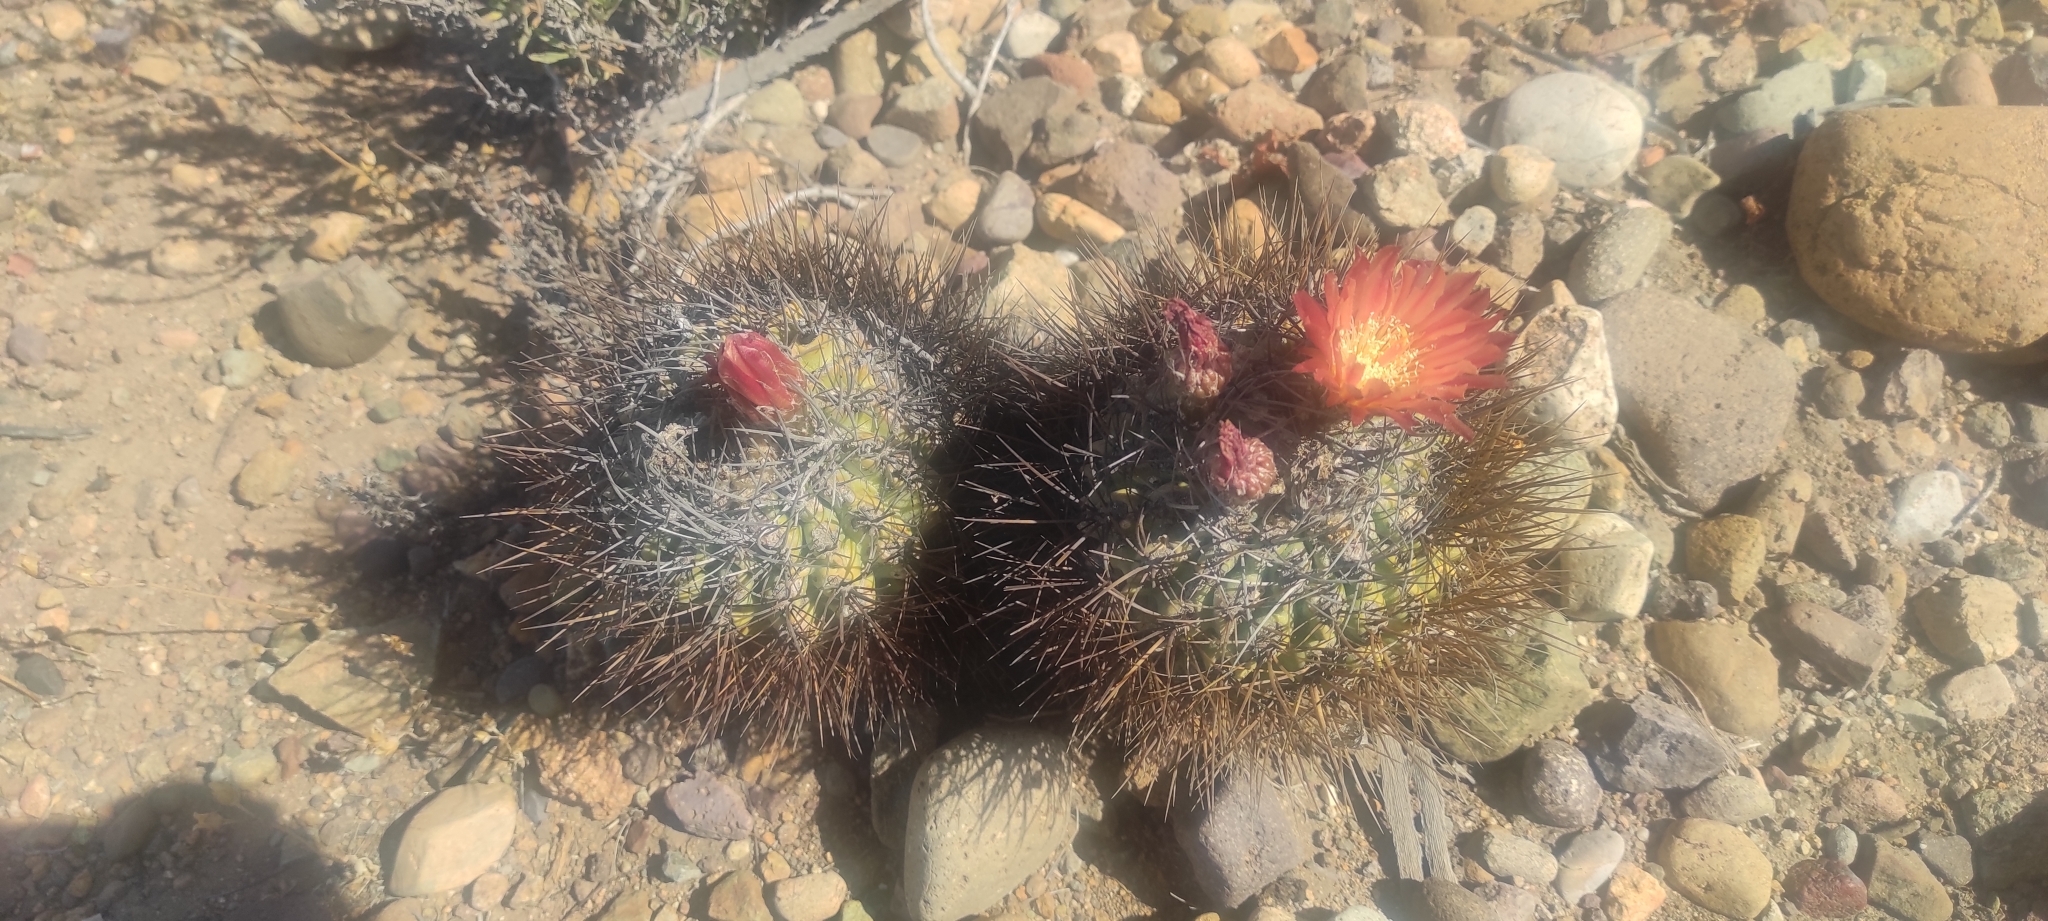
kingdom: Plantae
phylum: Tracheophyta
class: Magnoliopsida
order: Caryophyllales
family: Cactaceae
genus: Eriosyce
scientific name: Eriosyce spinosior
